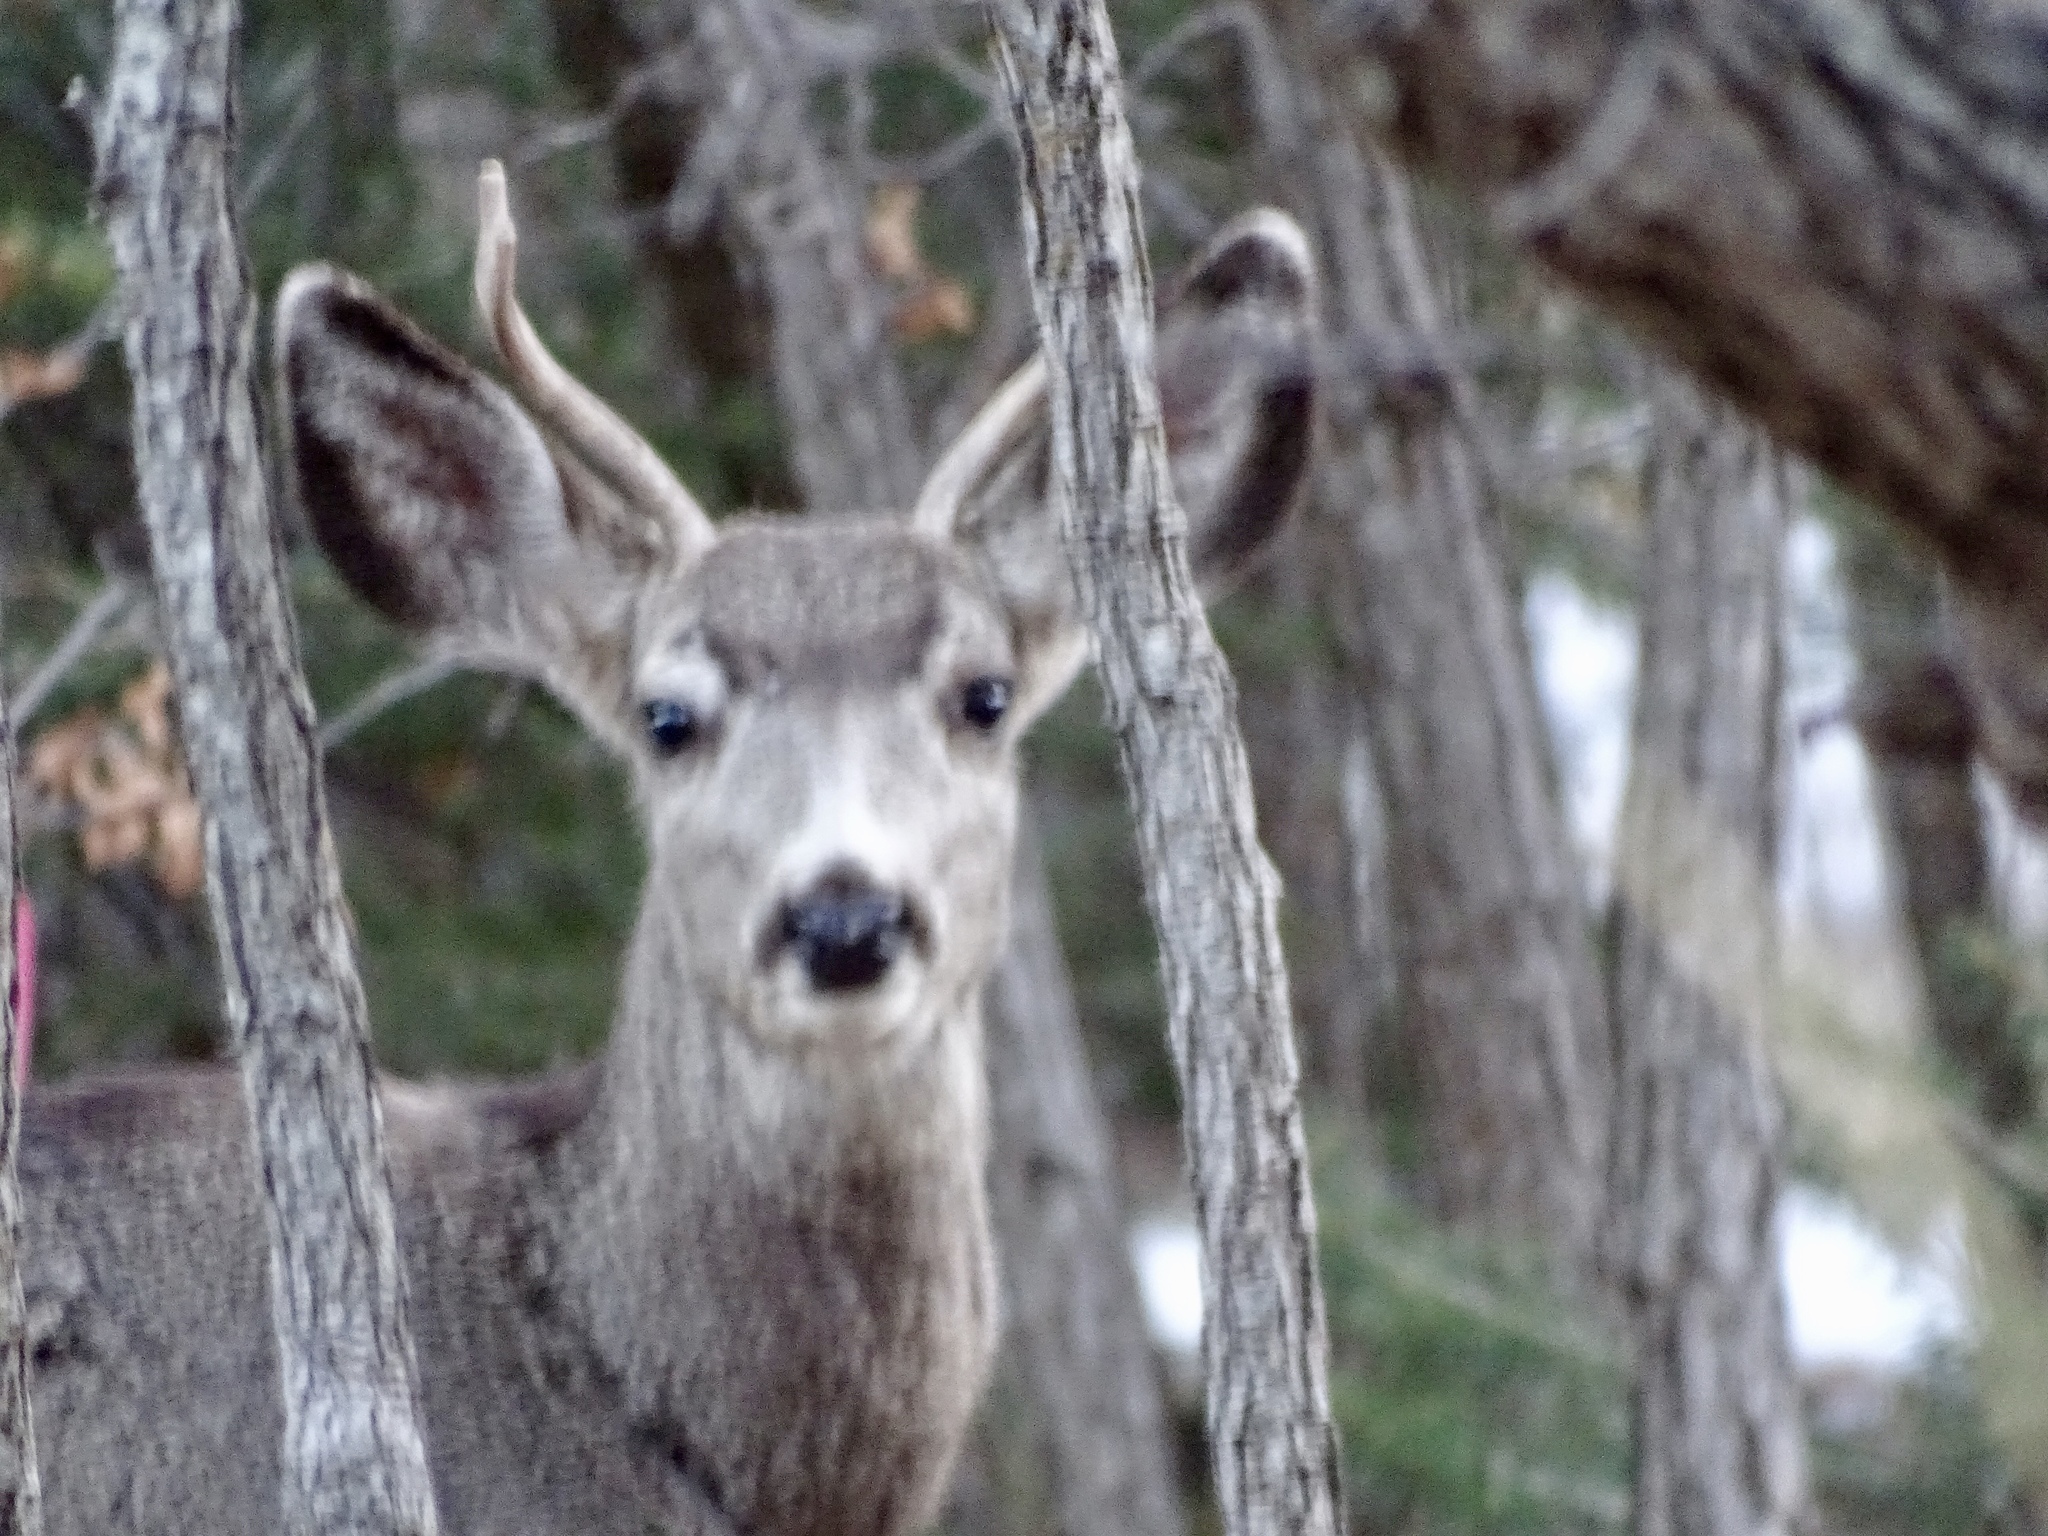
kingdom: Animalia
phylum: Chordata
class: Mammalia
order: Artiodactyla
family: Cervidae
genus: Odocoileus
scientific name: Odocoileus hemionus
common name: Mule deer
